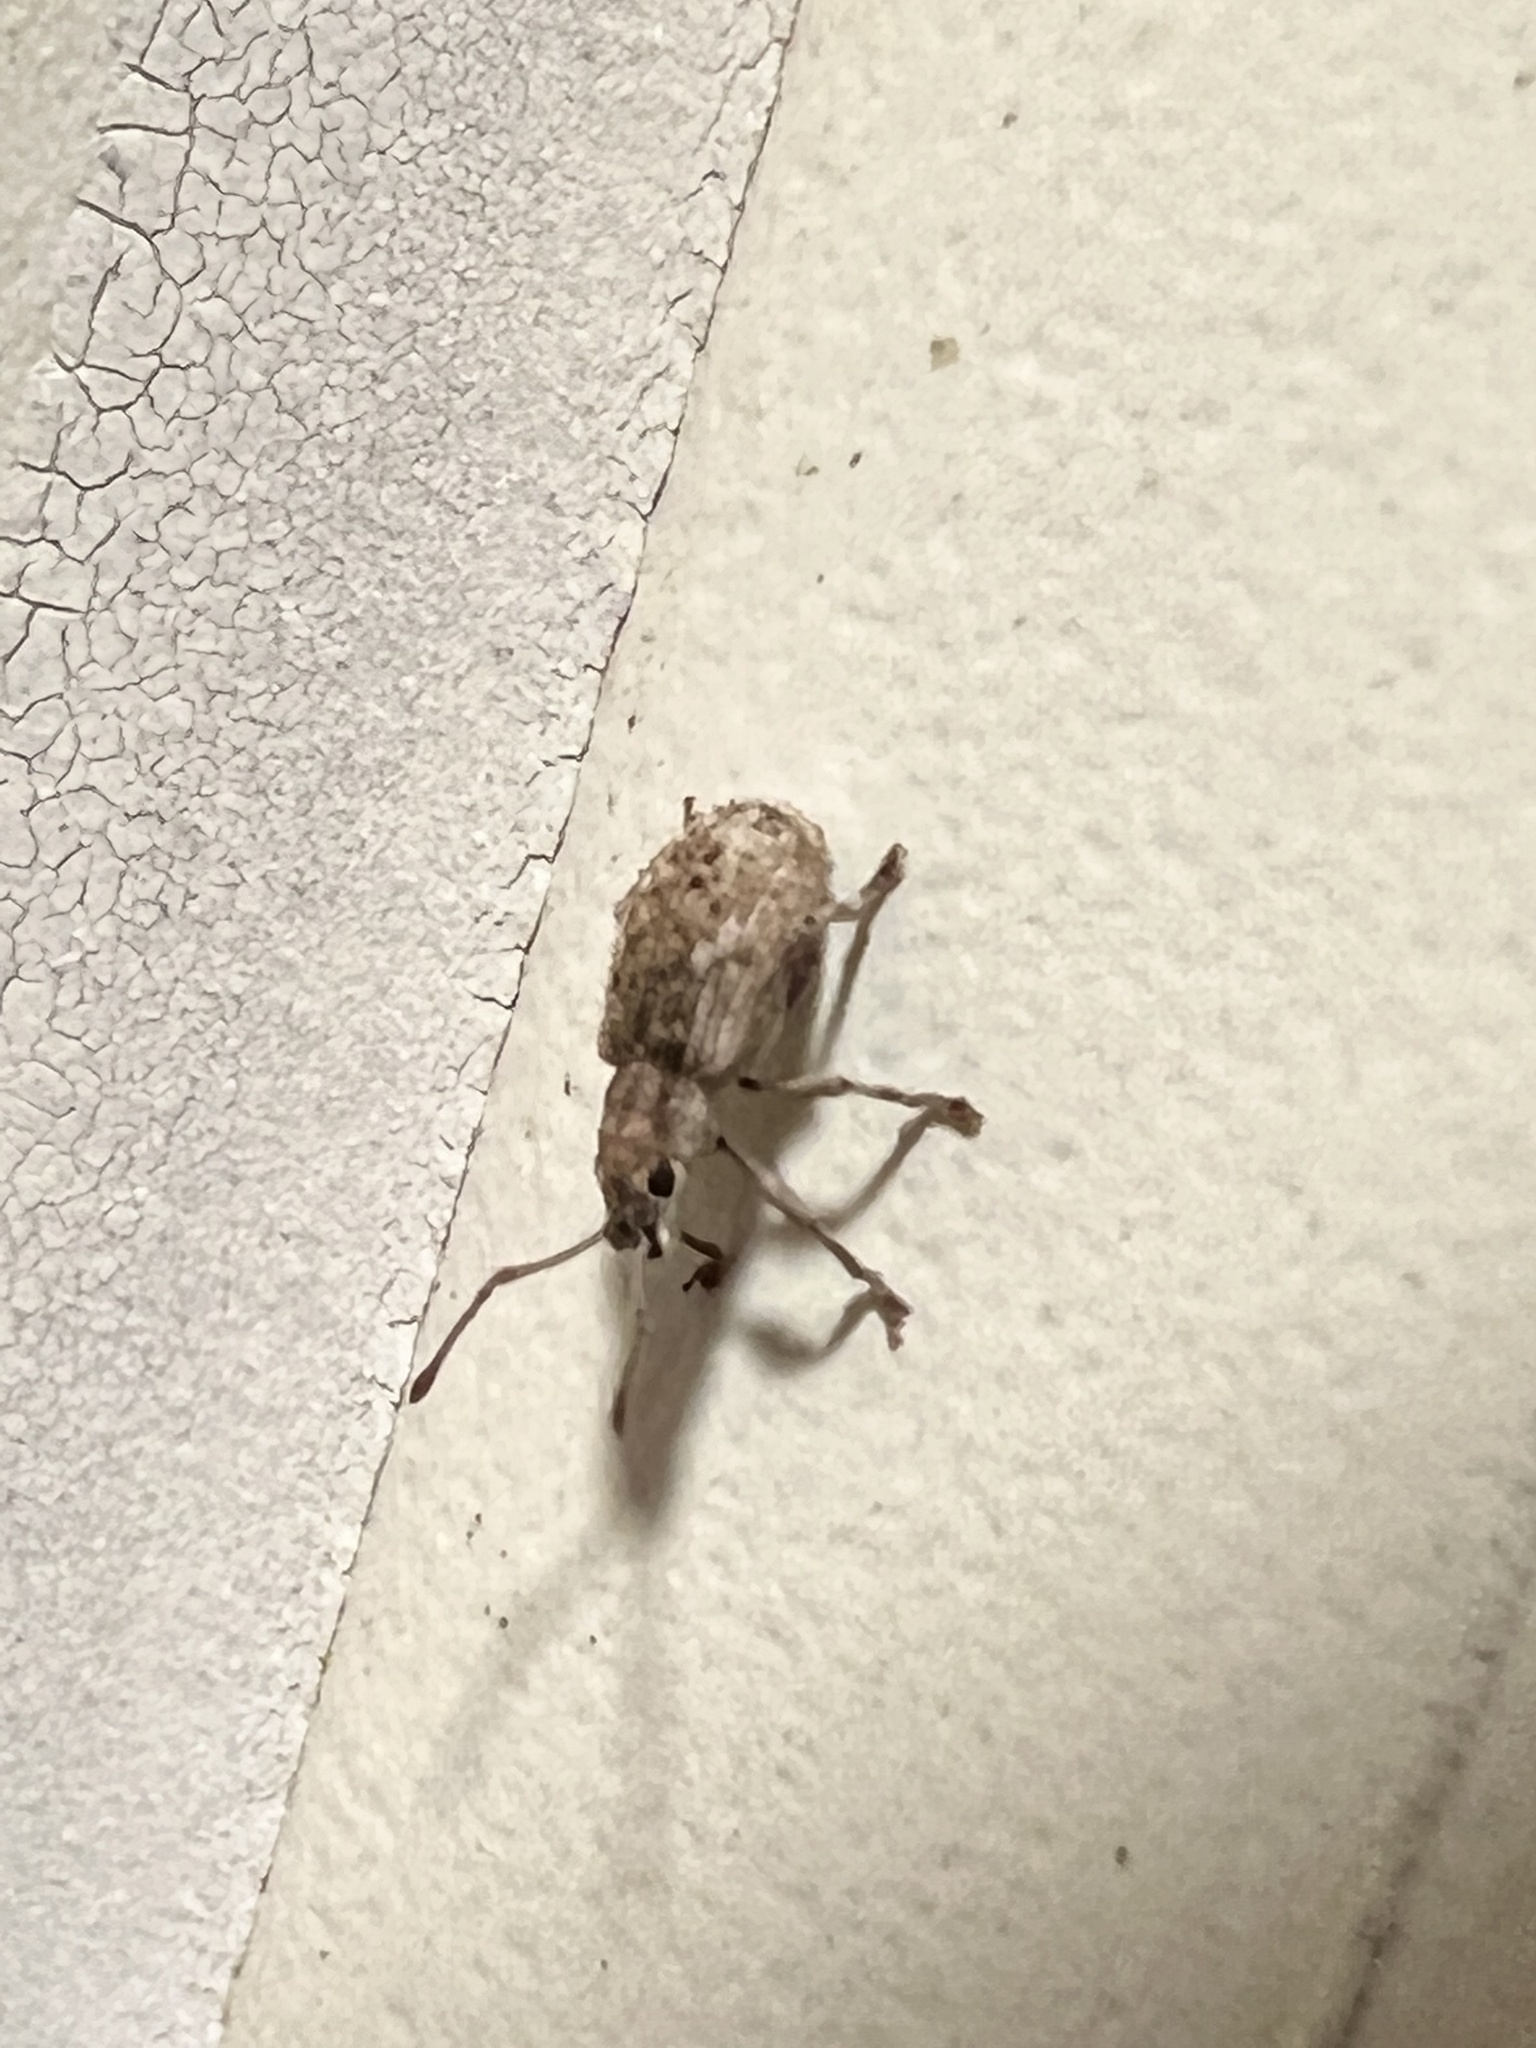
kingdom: Animalia
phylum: Arthropoda
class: Insecta
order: Coleoptera
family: Curculionidae
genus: Pseudoedophrys
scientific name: Pseudoedophrys hilleri
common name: Weevil
